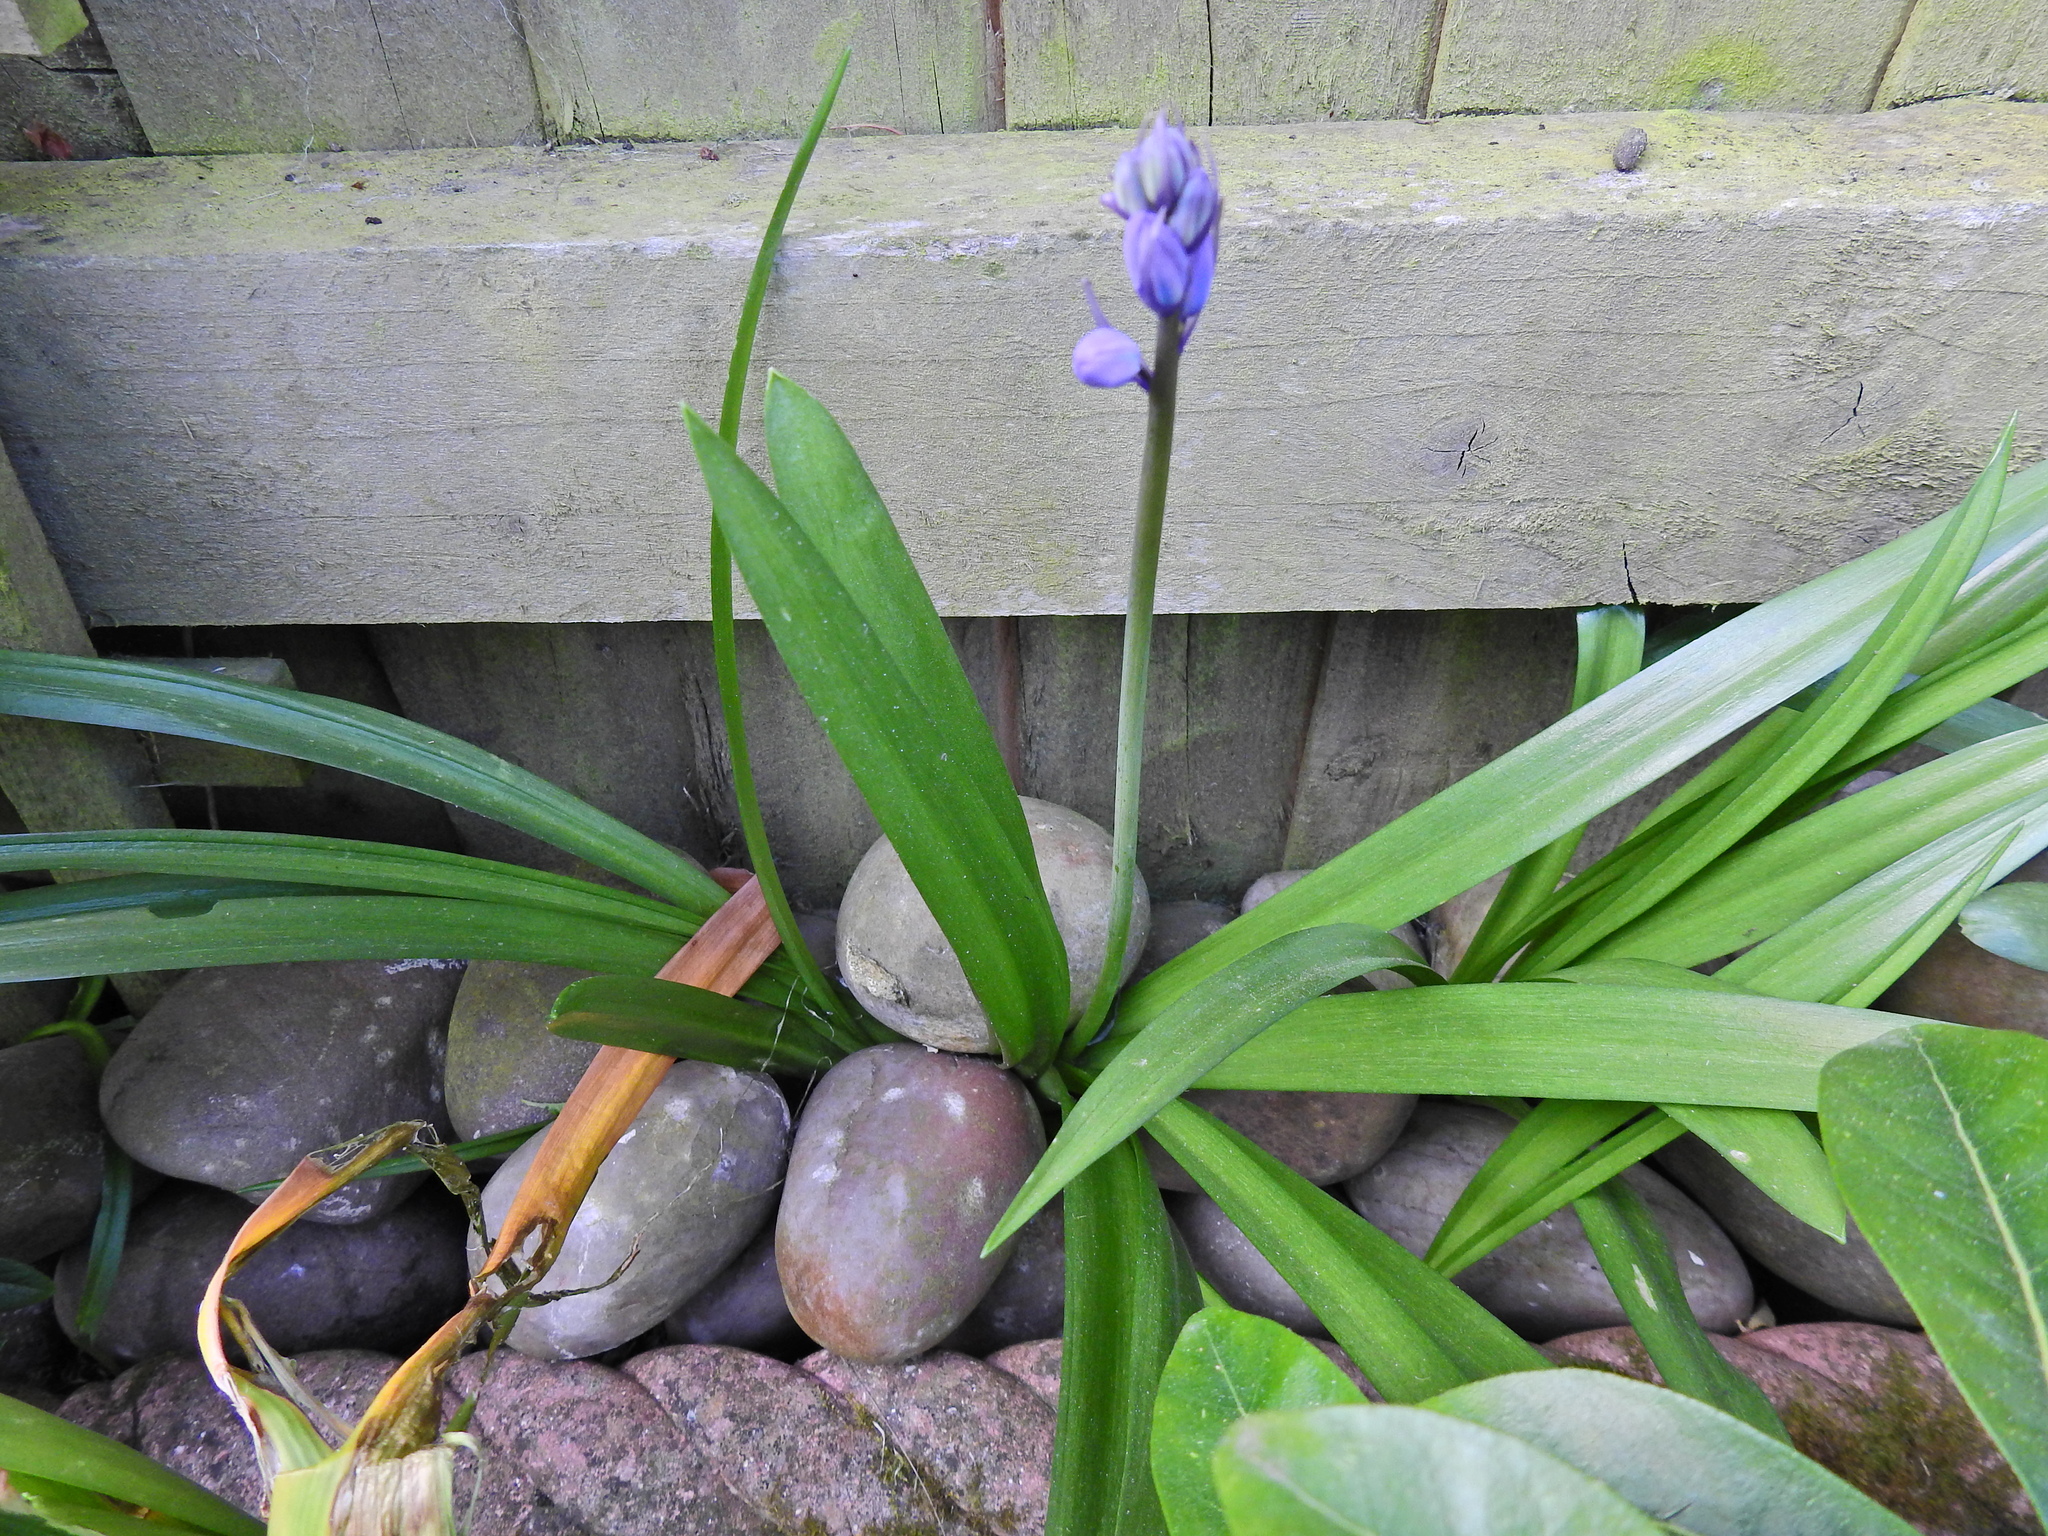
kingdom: Plantae
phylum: Tracheophyta
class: Liliopsida
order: Asparagales
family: Asparagaceae
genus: Hyacinthoides
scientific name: Hyacinthoides massartiana
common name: Hyacinthoides
